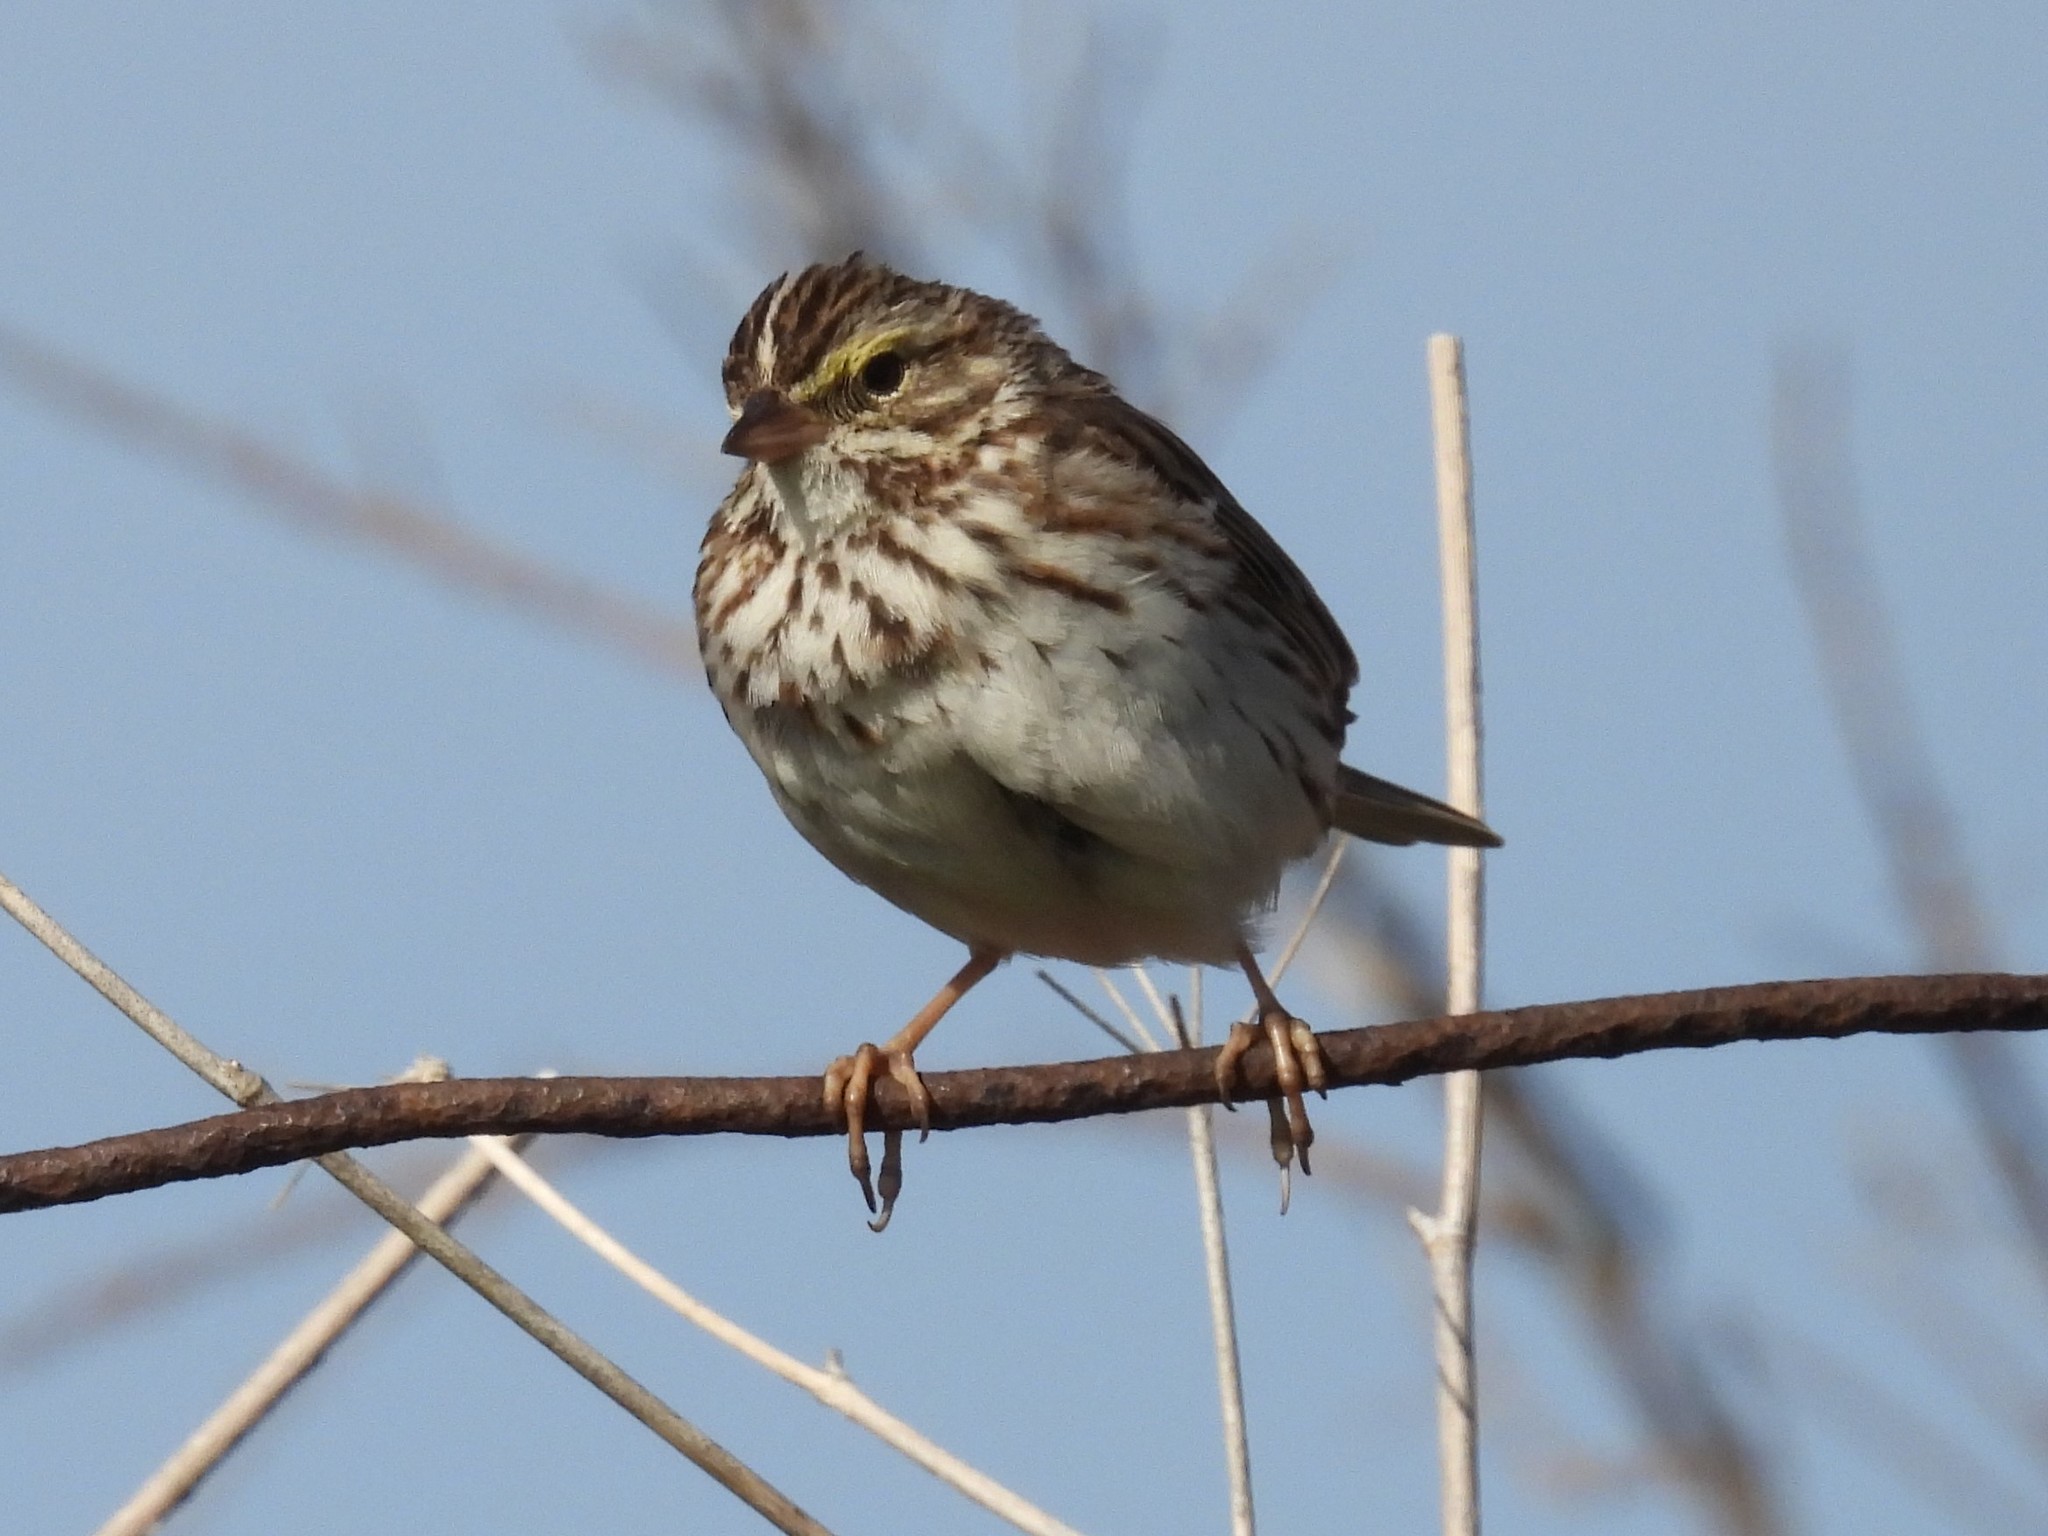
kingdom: Animalia
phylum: Chordata
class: Aves
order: Passeriformes
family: Passerellidae
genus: Passerculus
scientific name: Passerculus sandwichensis
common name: Savannah sparrow
